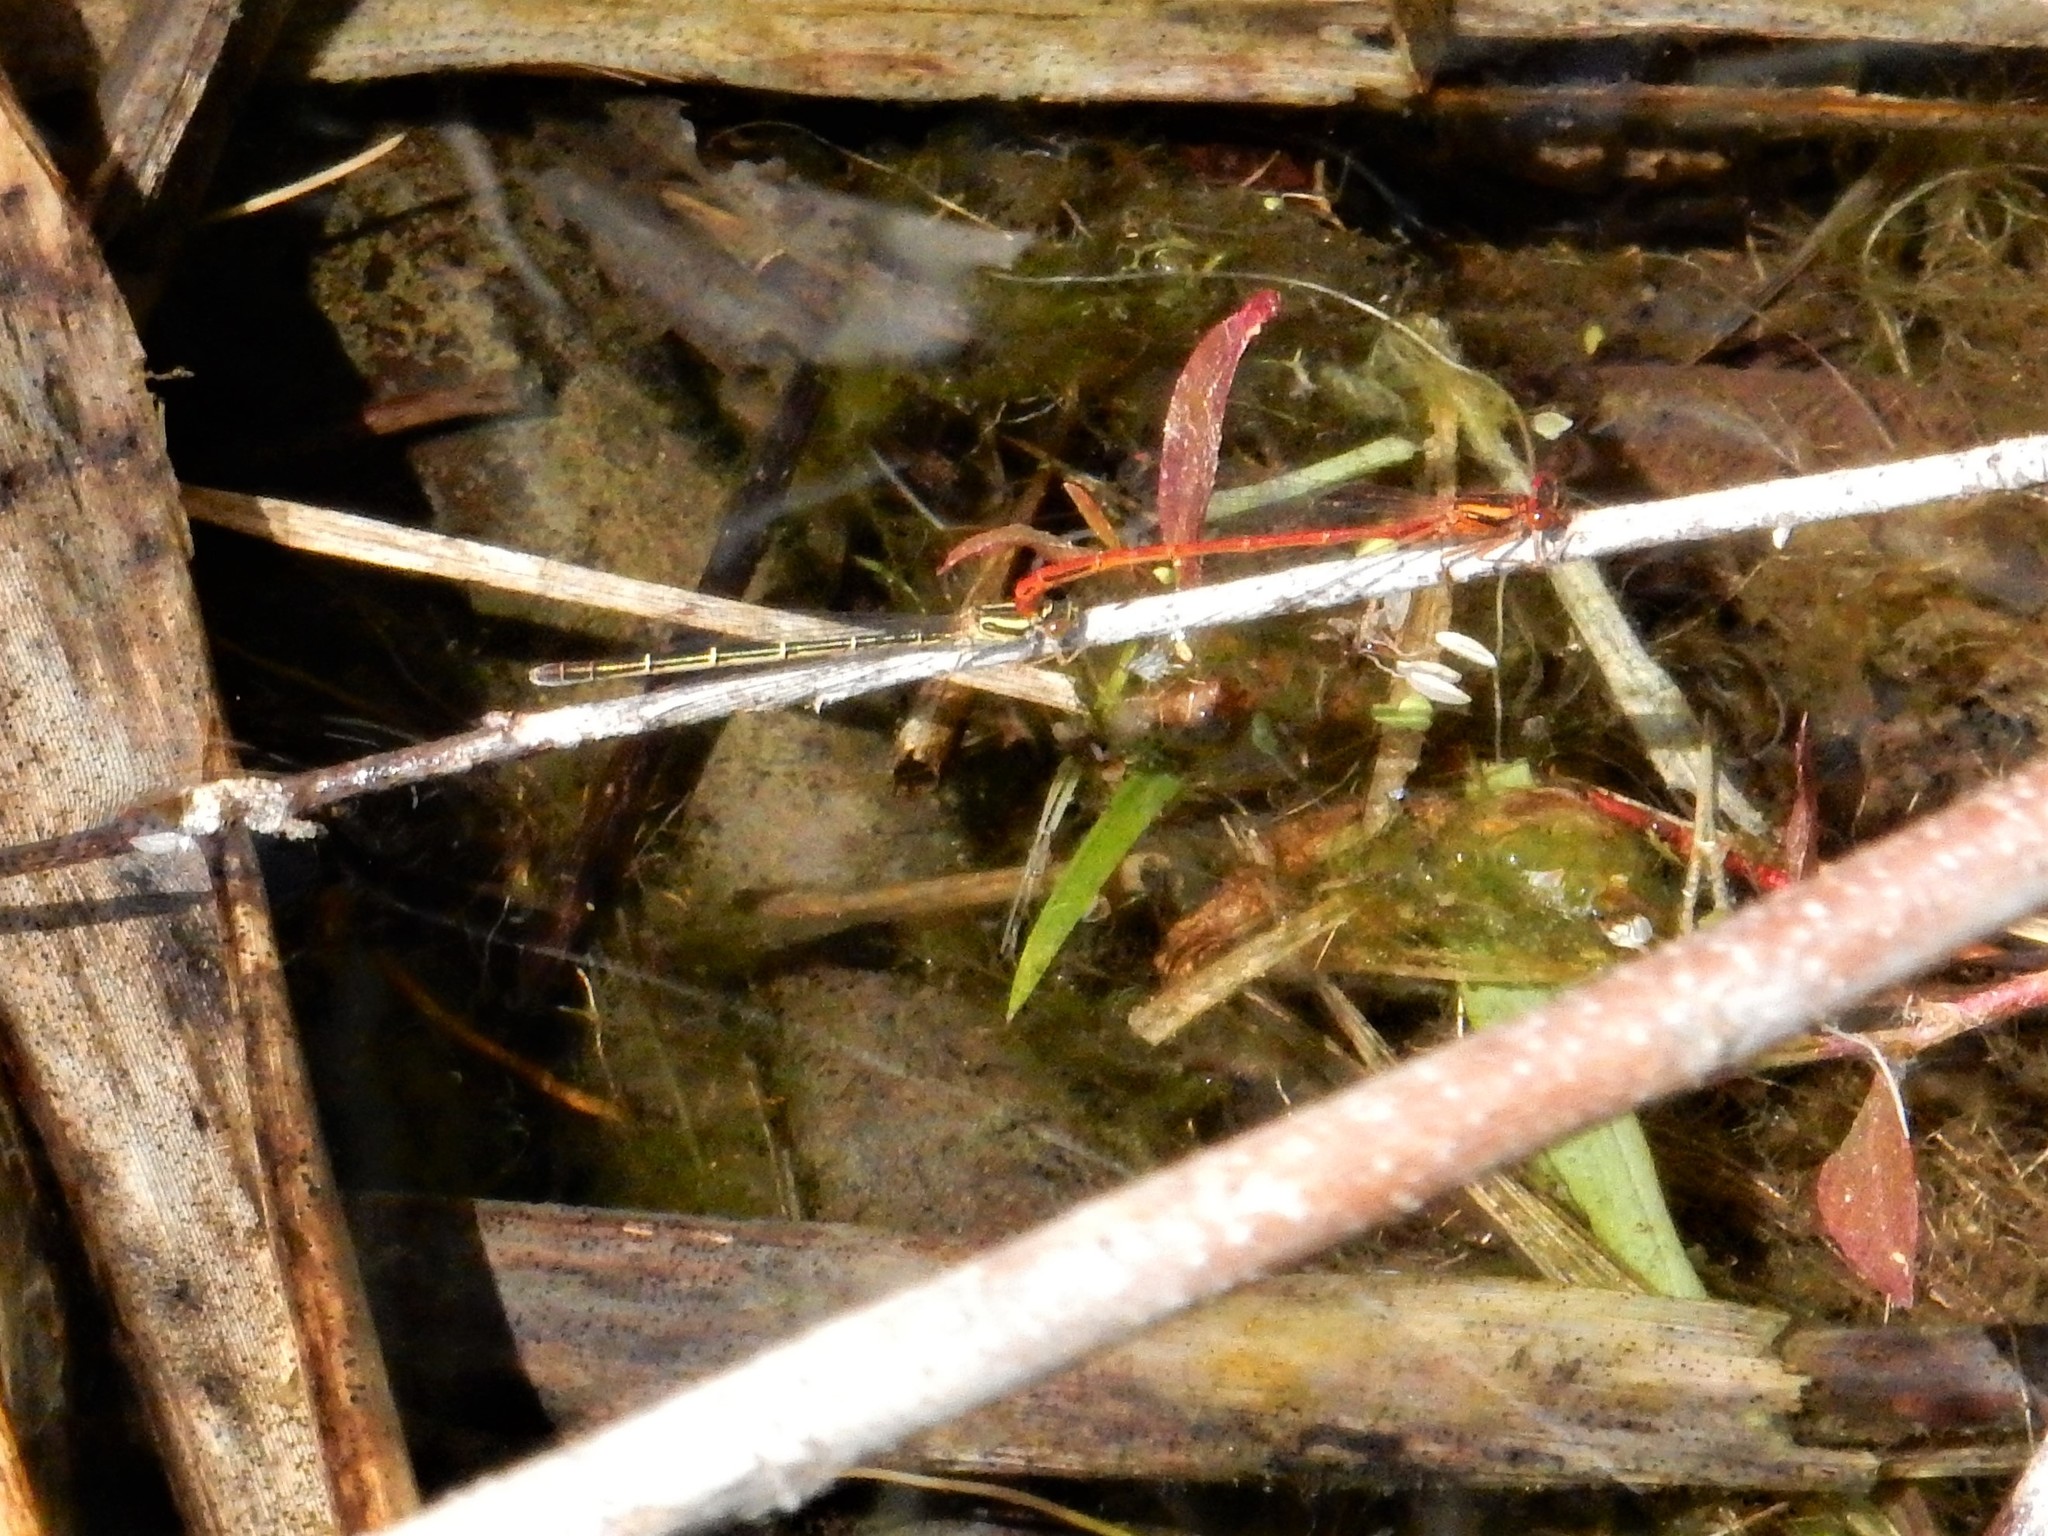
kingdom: Animalia
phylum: Arthropoda
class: Insecta
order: Odonata
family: Coenagrionidae
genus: Xanthocnemis
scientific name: Xanthocnemis zealandica
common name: Common redcoat damselfly
